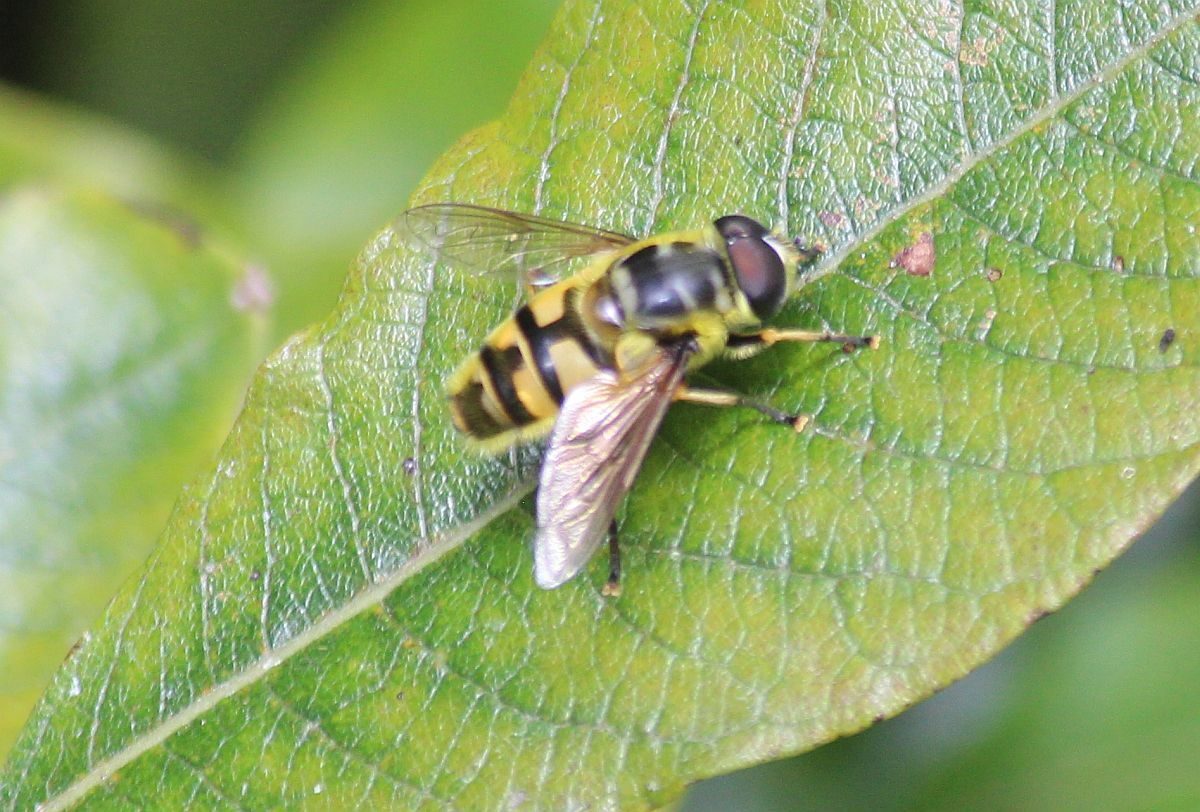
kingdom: Animalia
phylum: Arthropoda
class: Insecta
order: Diptera
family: Syrphidae
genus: Myathropa
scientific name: Myathropa florea
